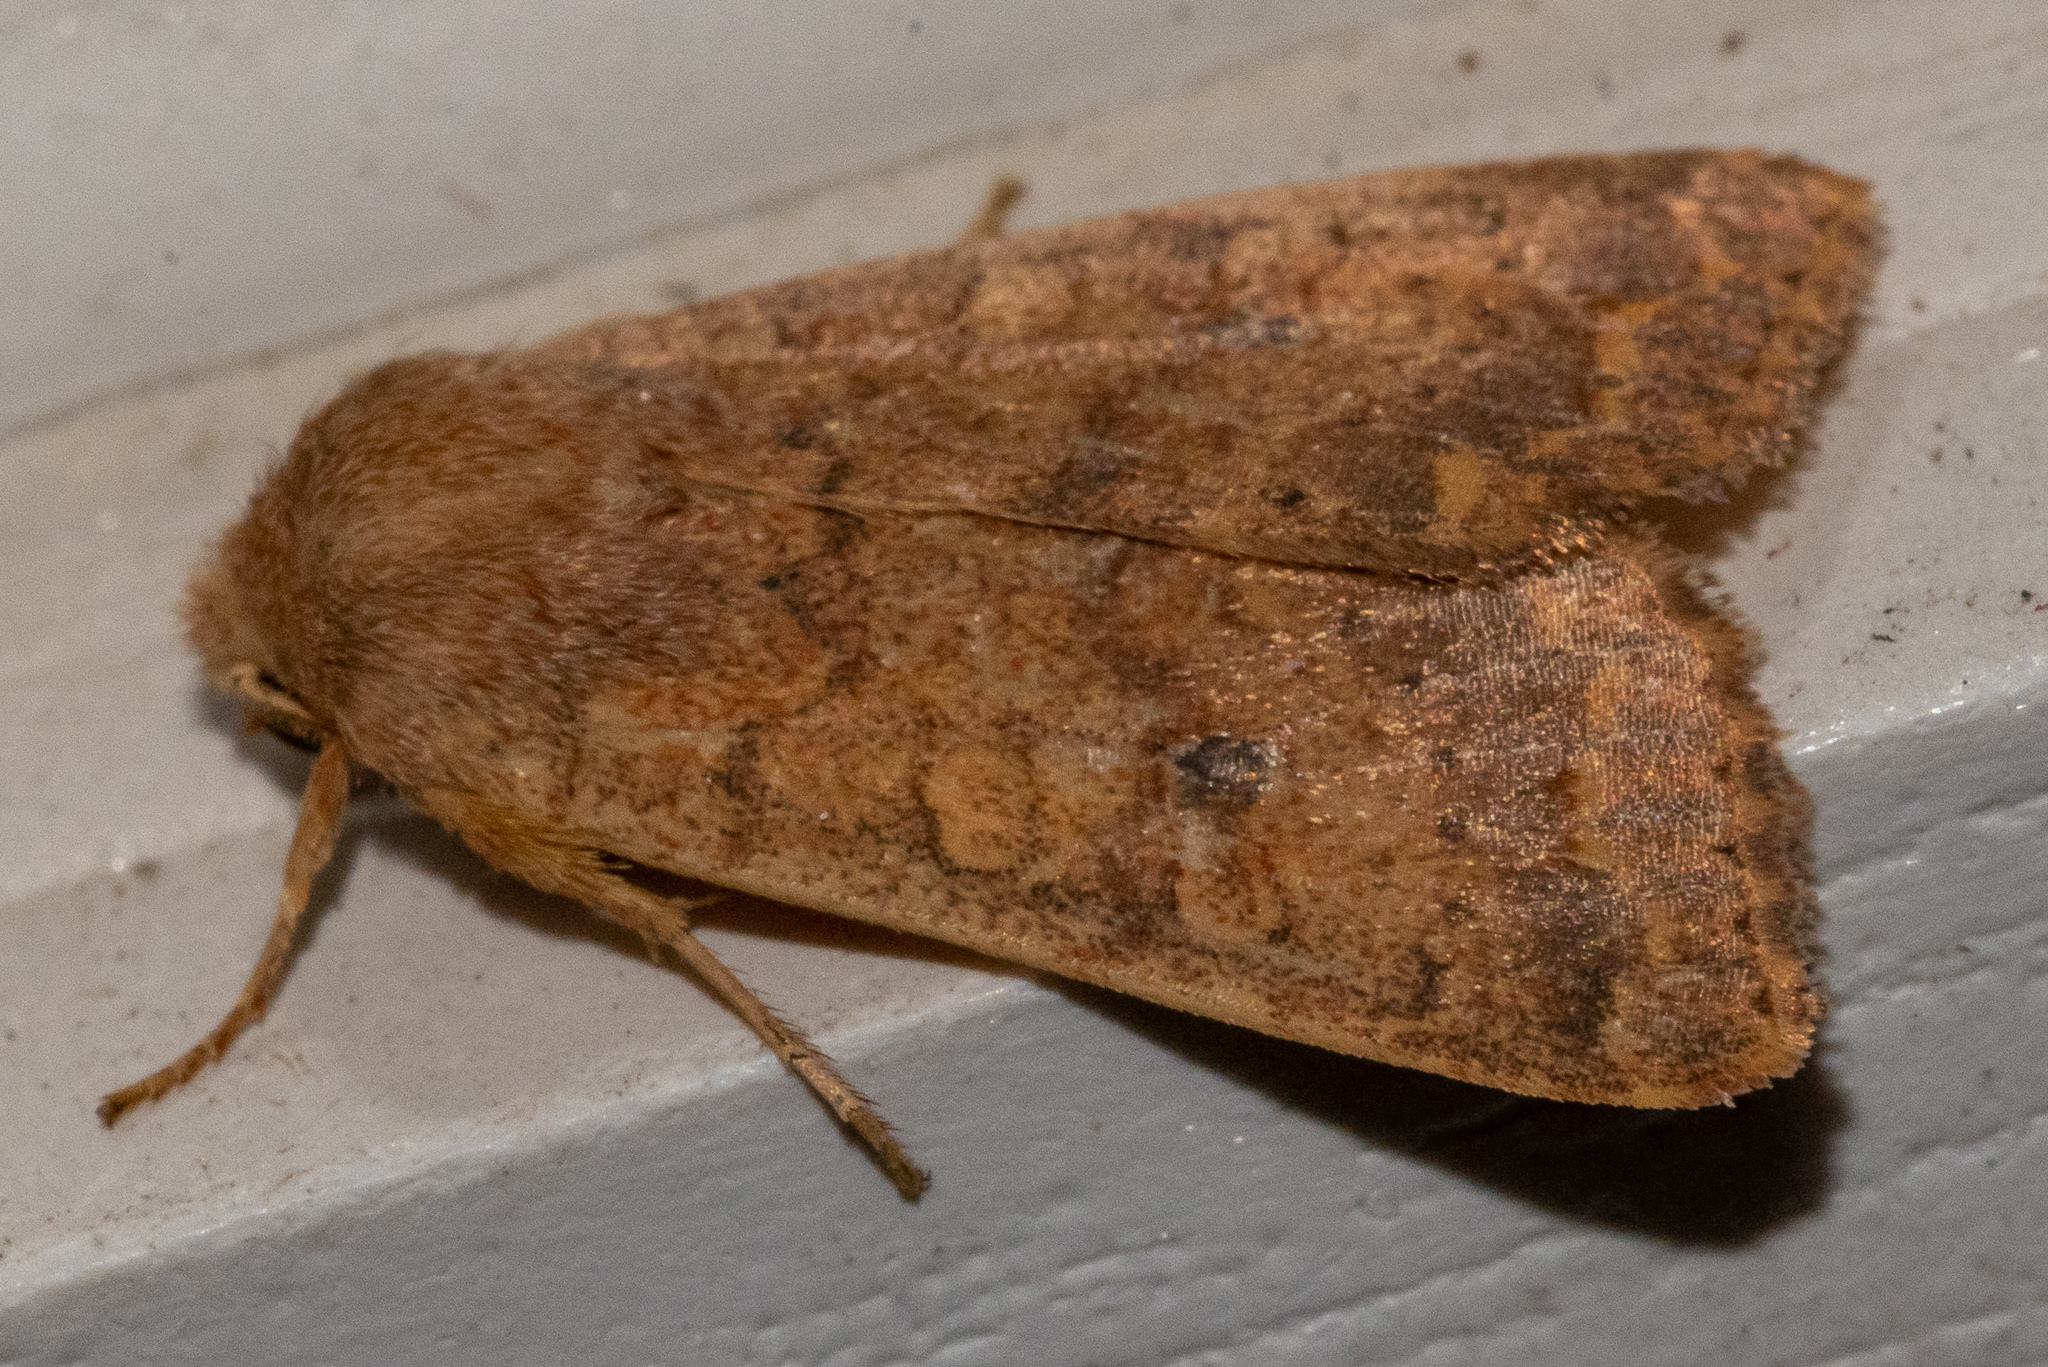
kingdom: Animalia
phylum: Arthropoda
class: Insecta
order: Lepidoptera
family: Noctuidae
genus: Agrochola
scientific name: Agrochola bicolorago
